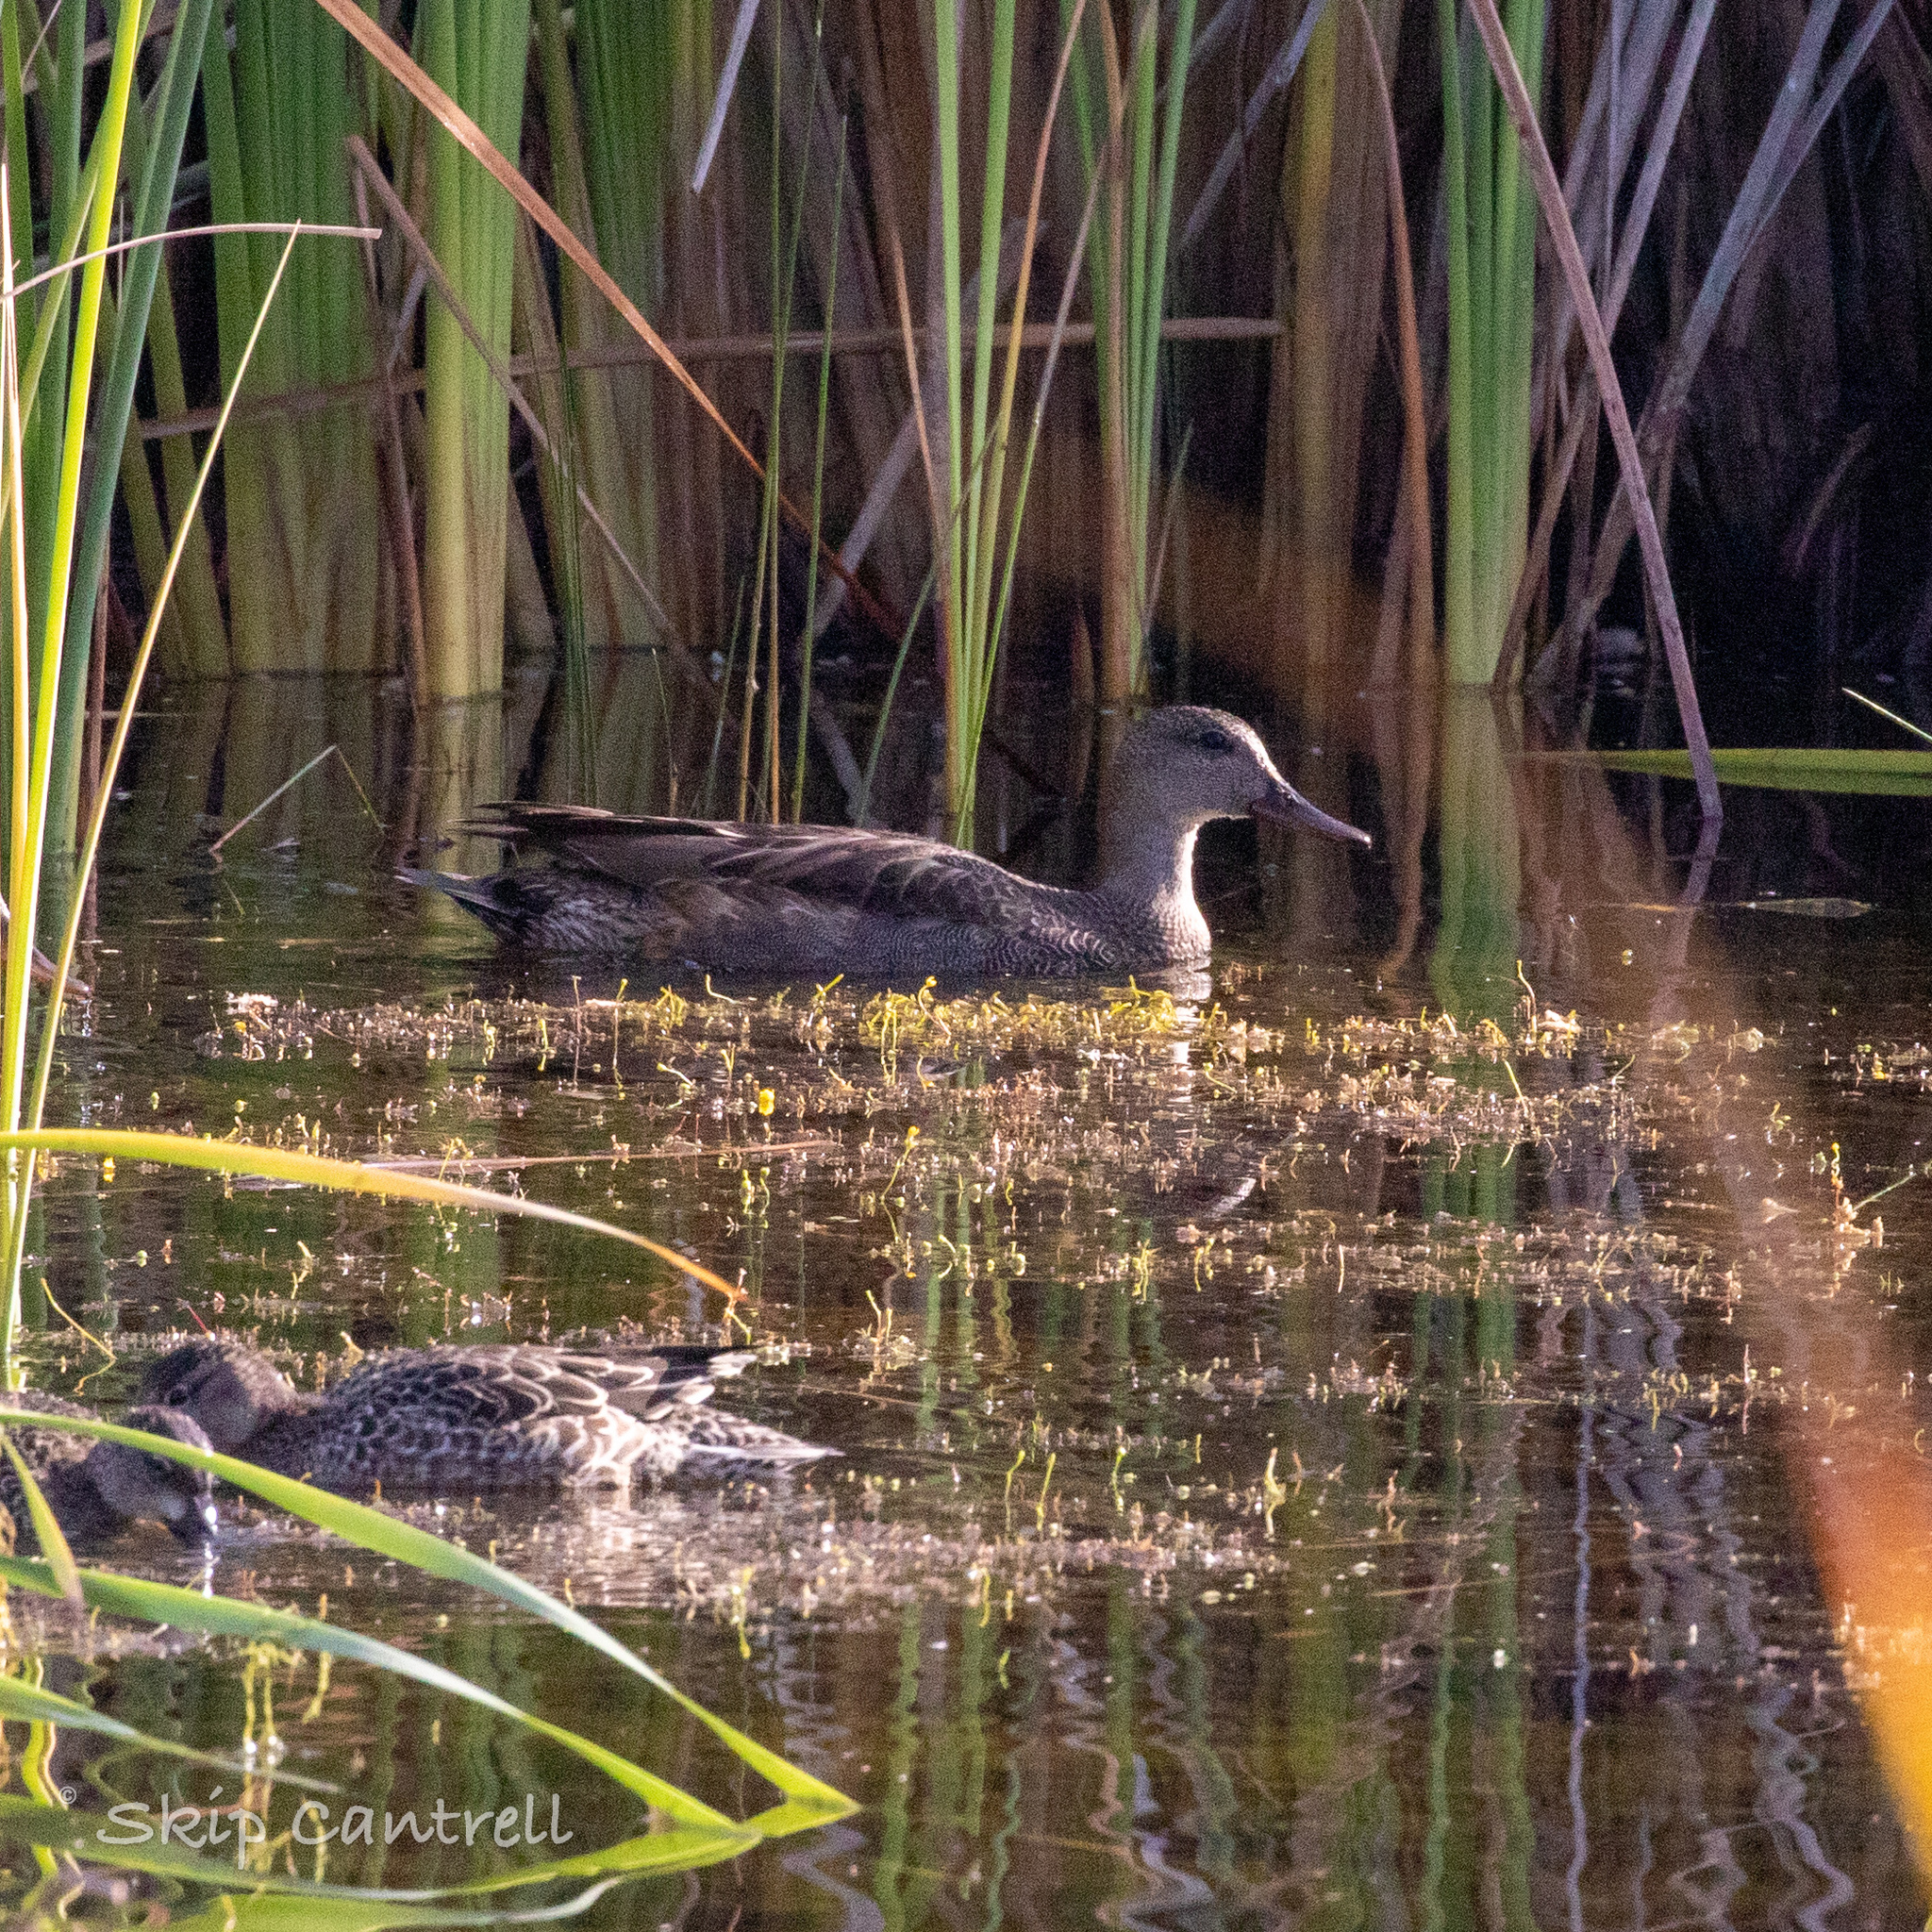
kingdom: Animalia
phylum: Chordata
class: Aves
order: Anseriformes
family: Anatidae
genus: Mareca
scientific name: Mareca strepera
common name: Gadwall
